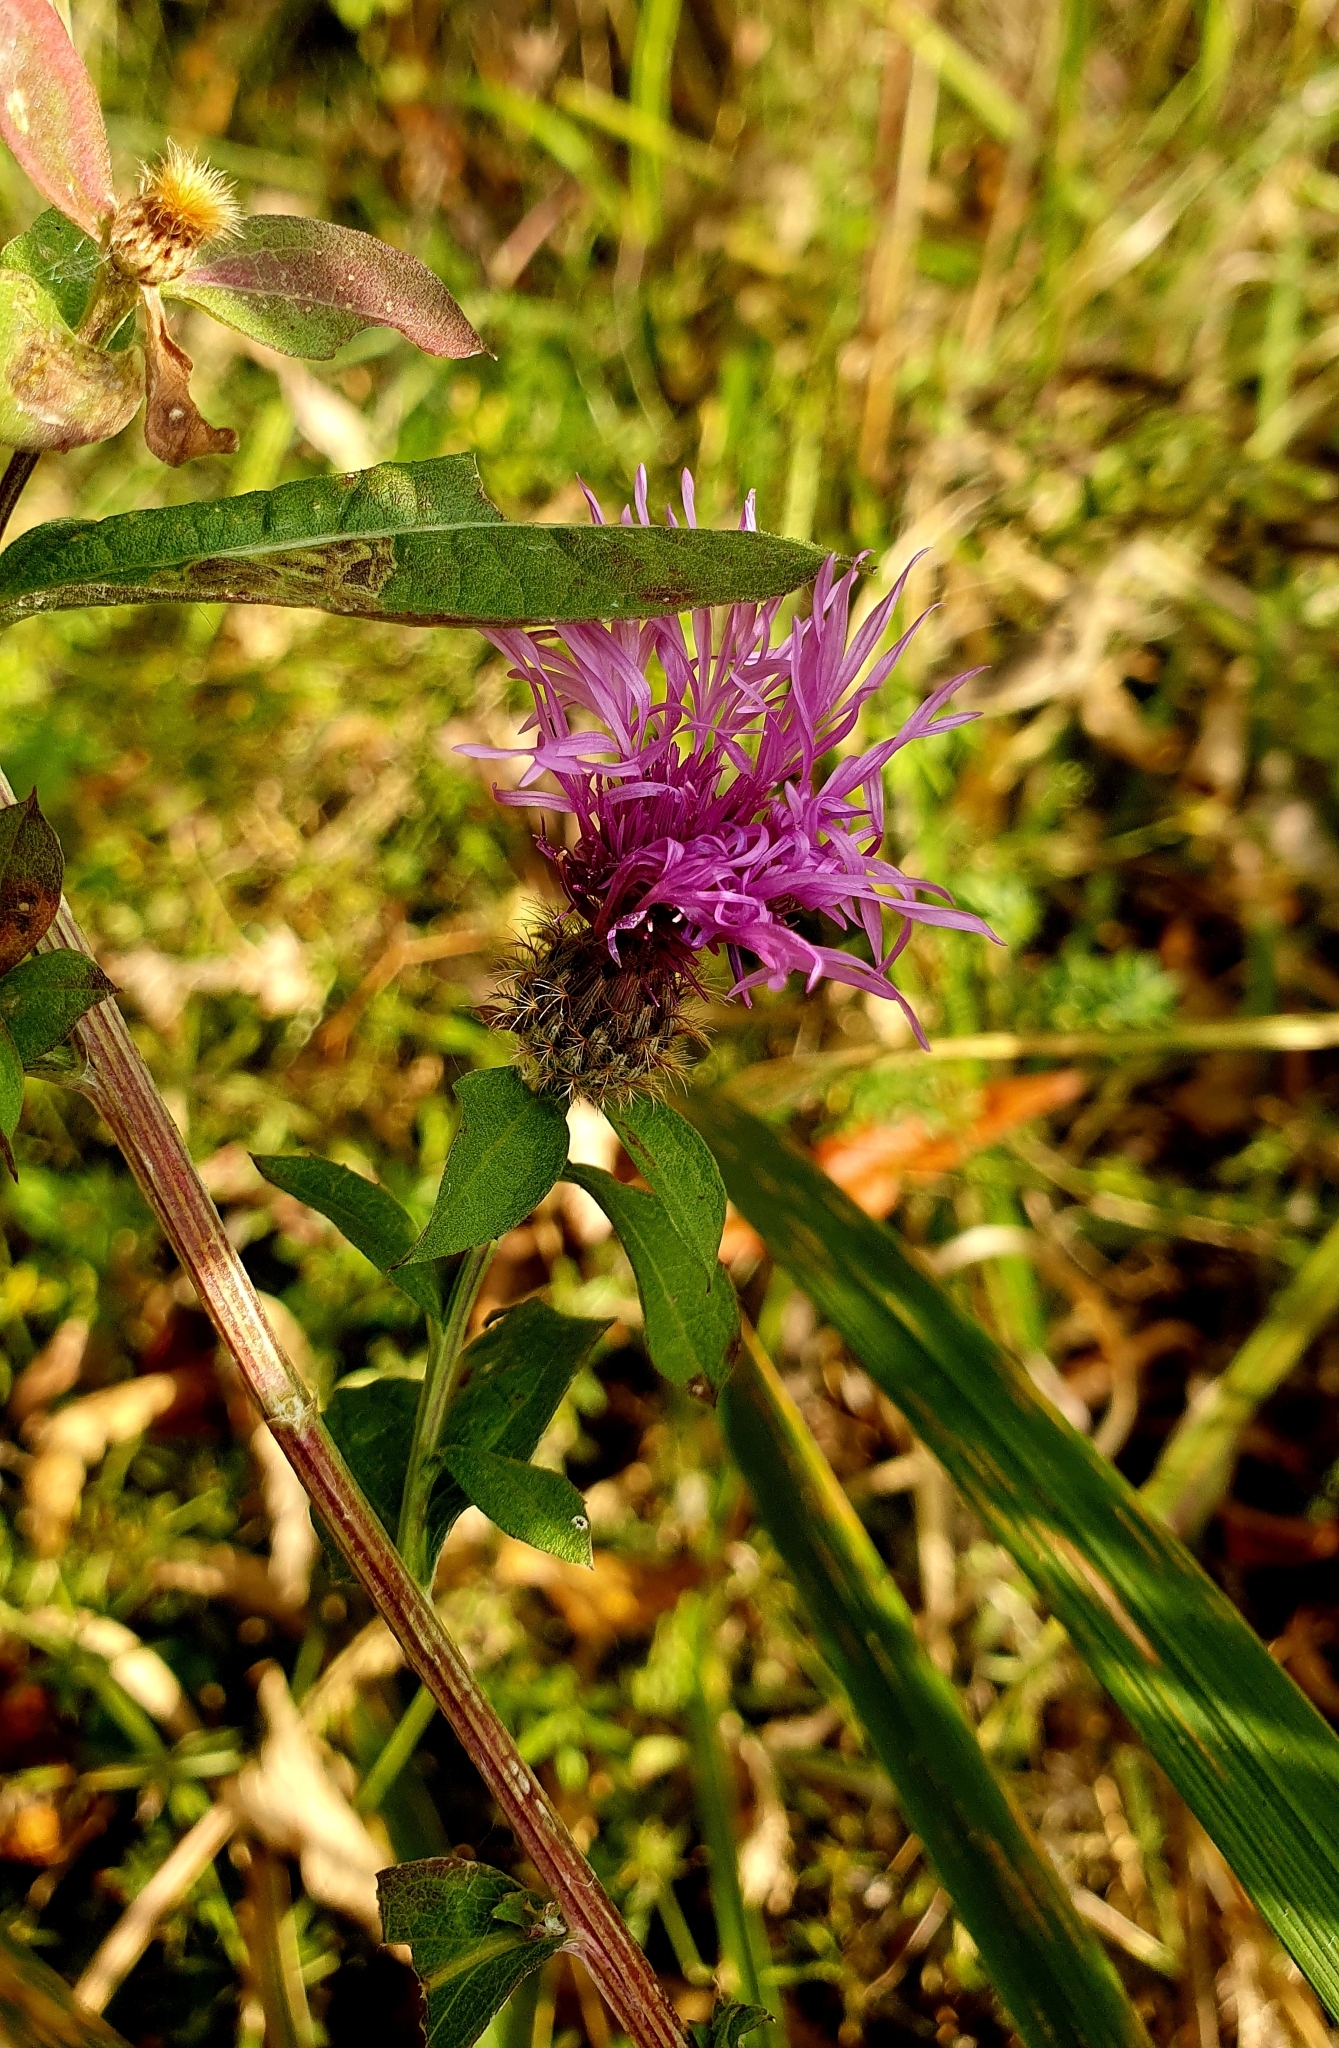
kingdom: Plantae
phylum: Tracheophyta
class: Magnoliopsida
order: Asterales
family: Asteraceae
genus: Centaurea
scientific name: Centaurea pseudophrygia
